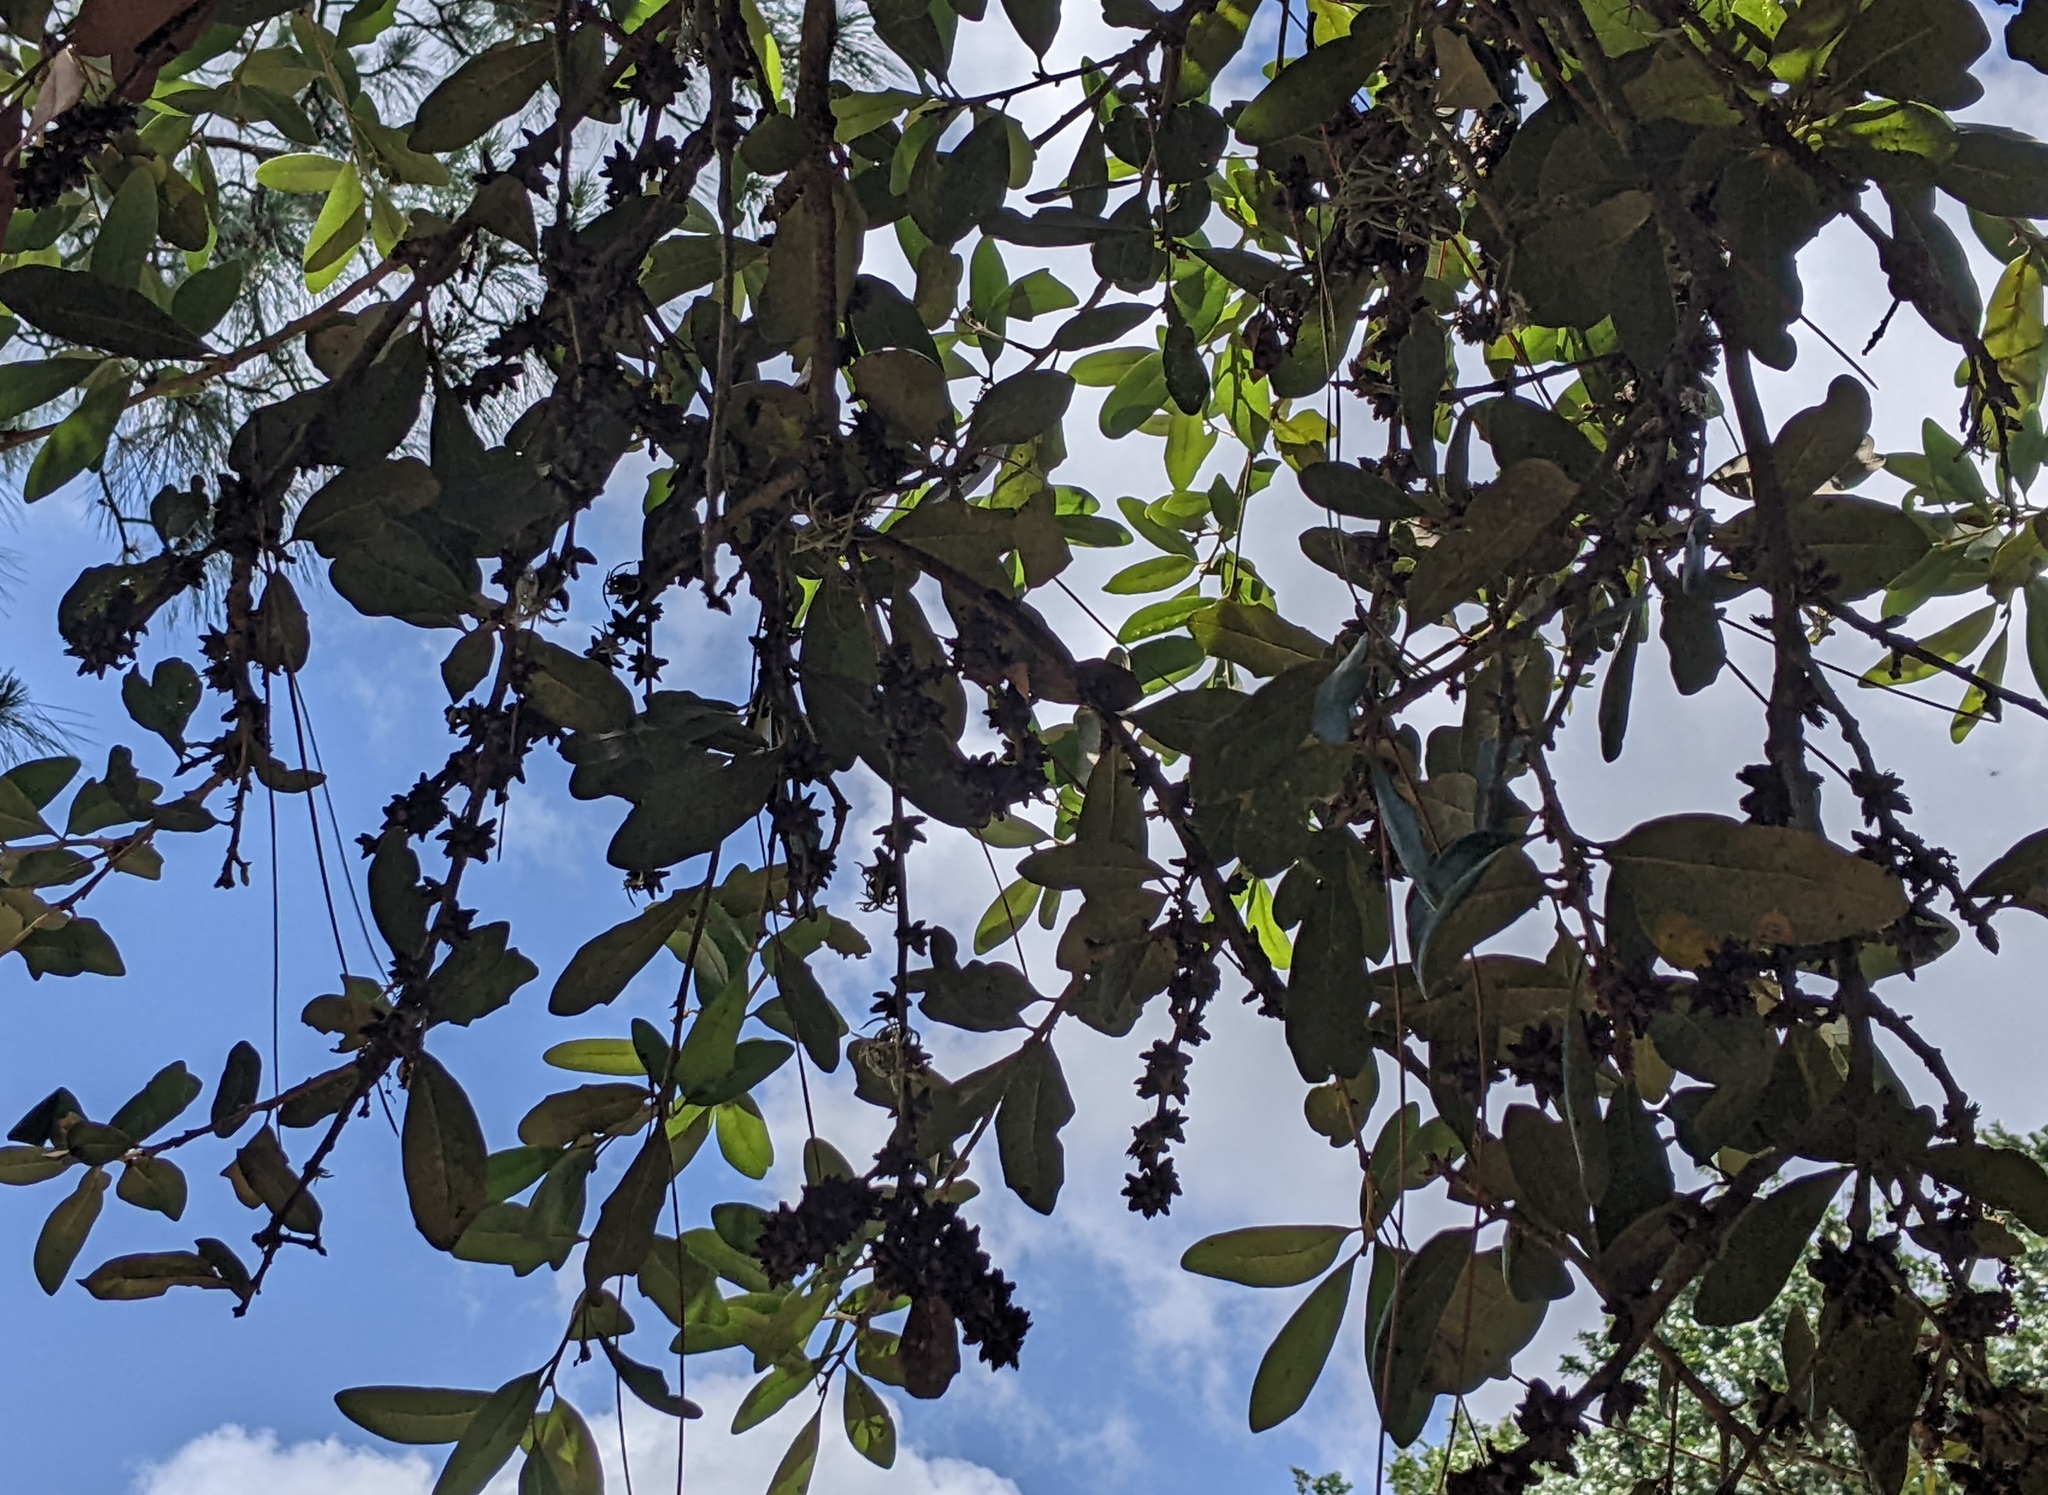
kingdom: Animalia
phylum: Arthropoda
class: Insecta
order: Diptera
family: Cecidomyiidae
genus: Arnoldiola
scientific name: Arnoldiola atra
